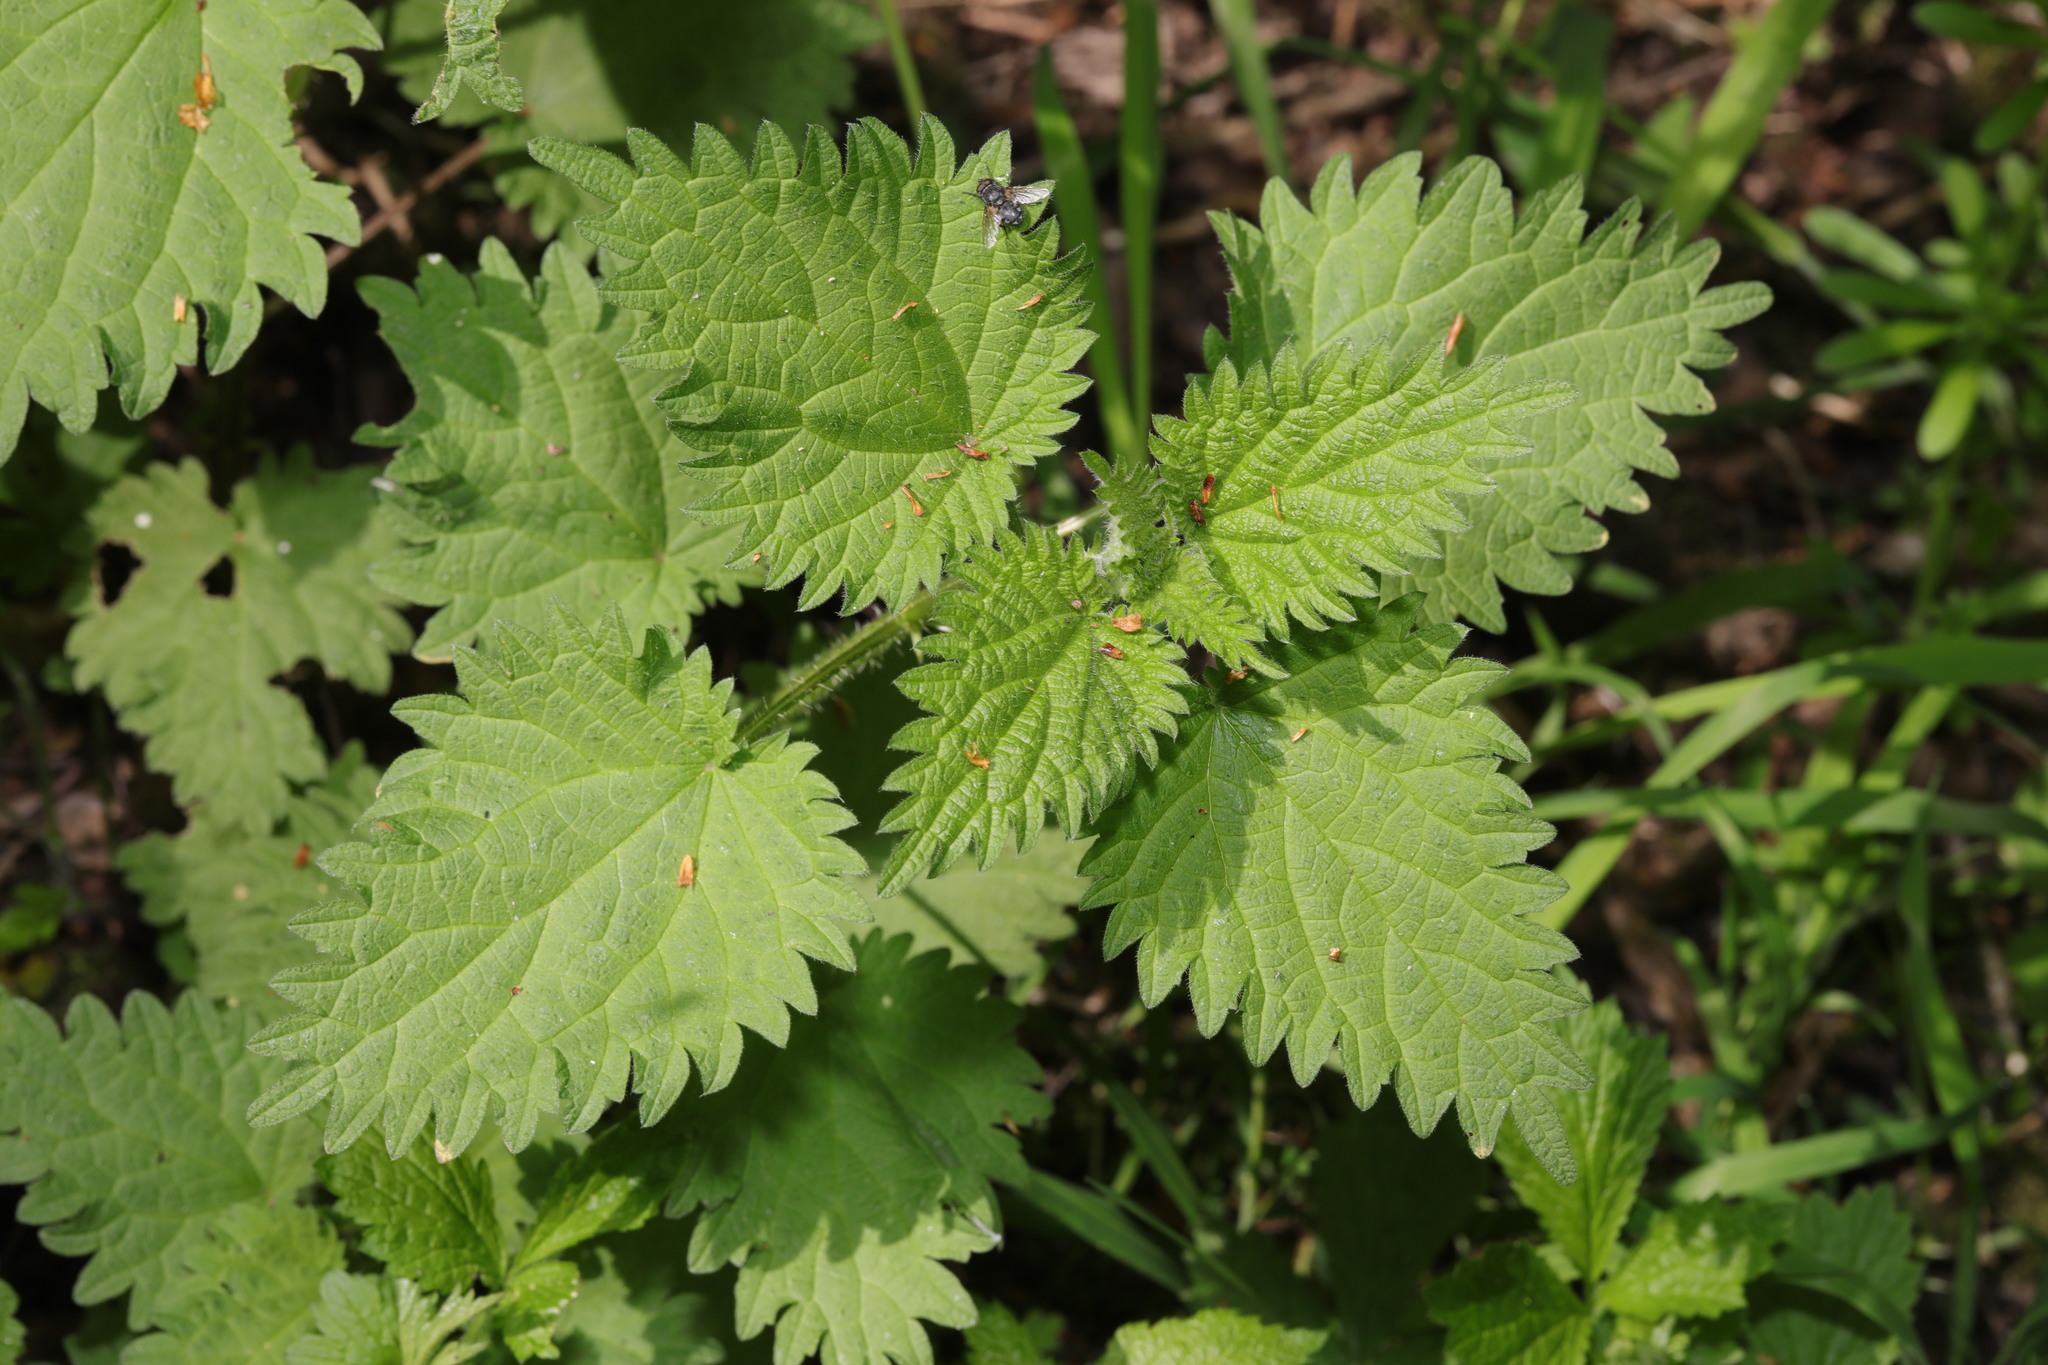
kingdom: Plantae
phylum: Tracheophyta
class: Magnoliopsida
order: Rosales
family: Urticaceae
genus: Urtica
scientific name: Urtica dioica
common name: Common nettle
